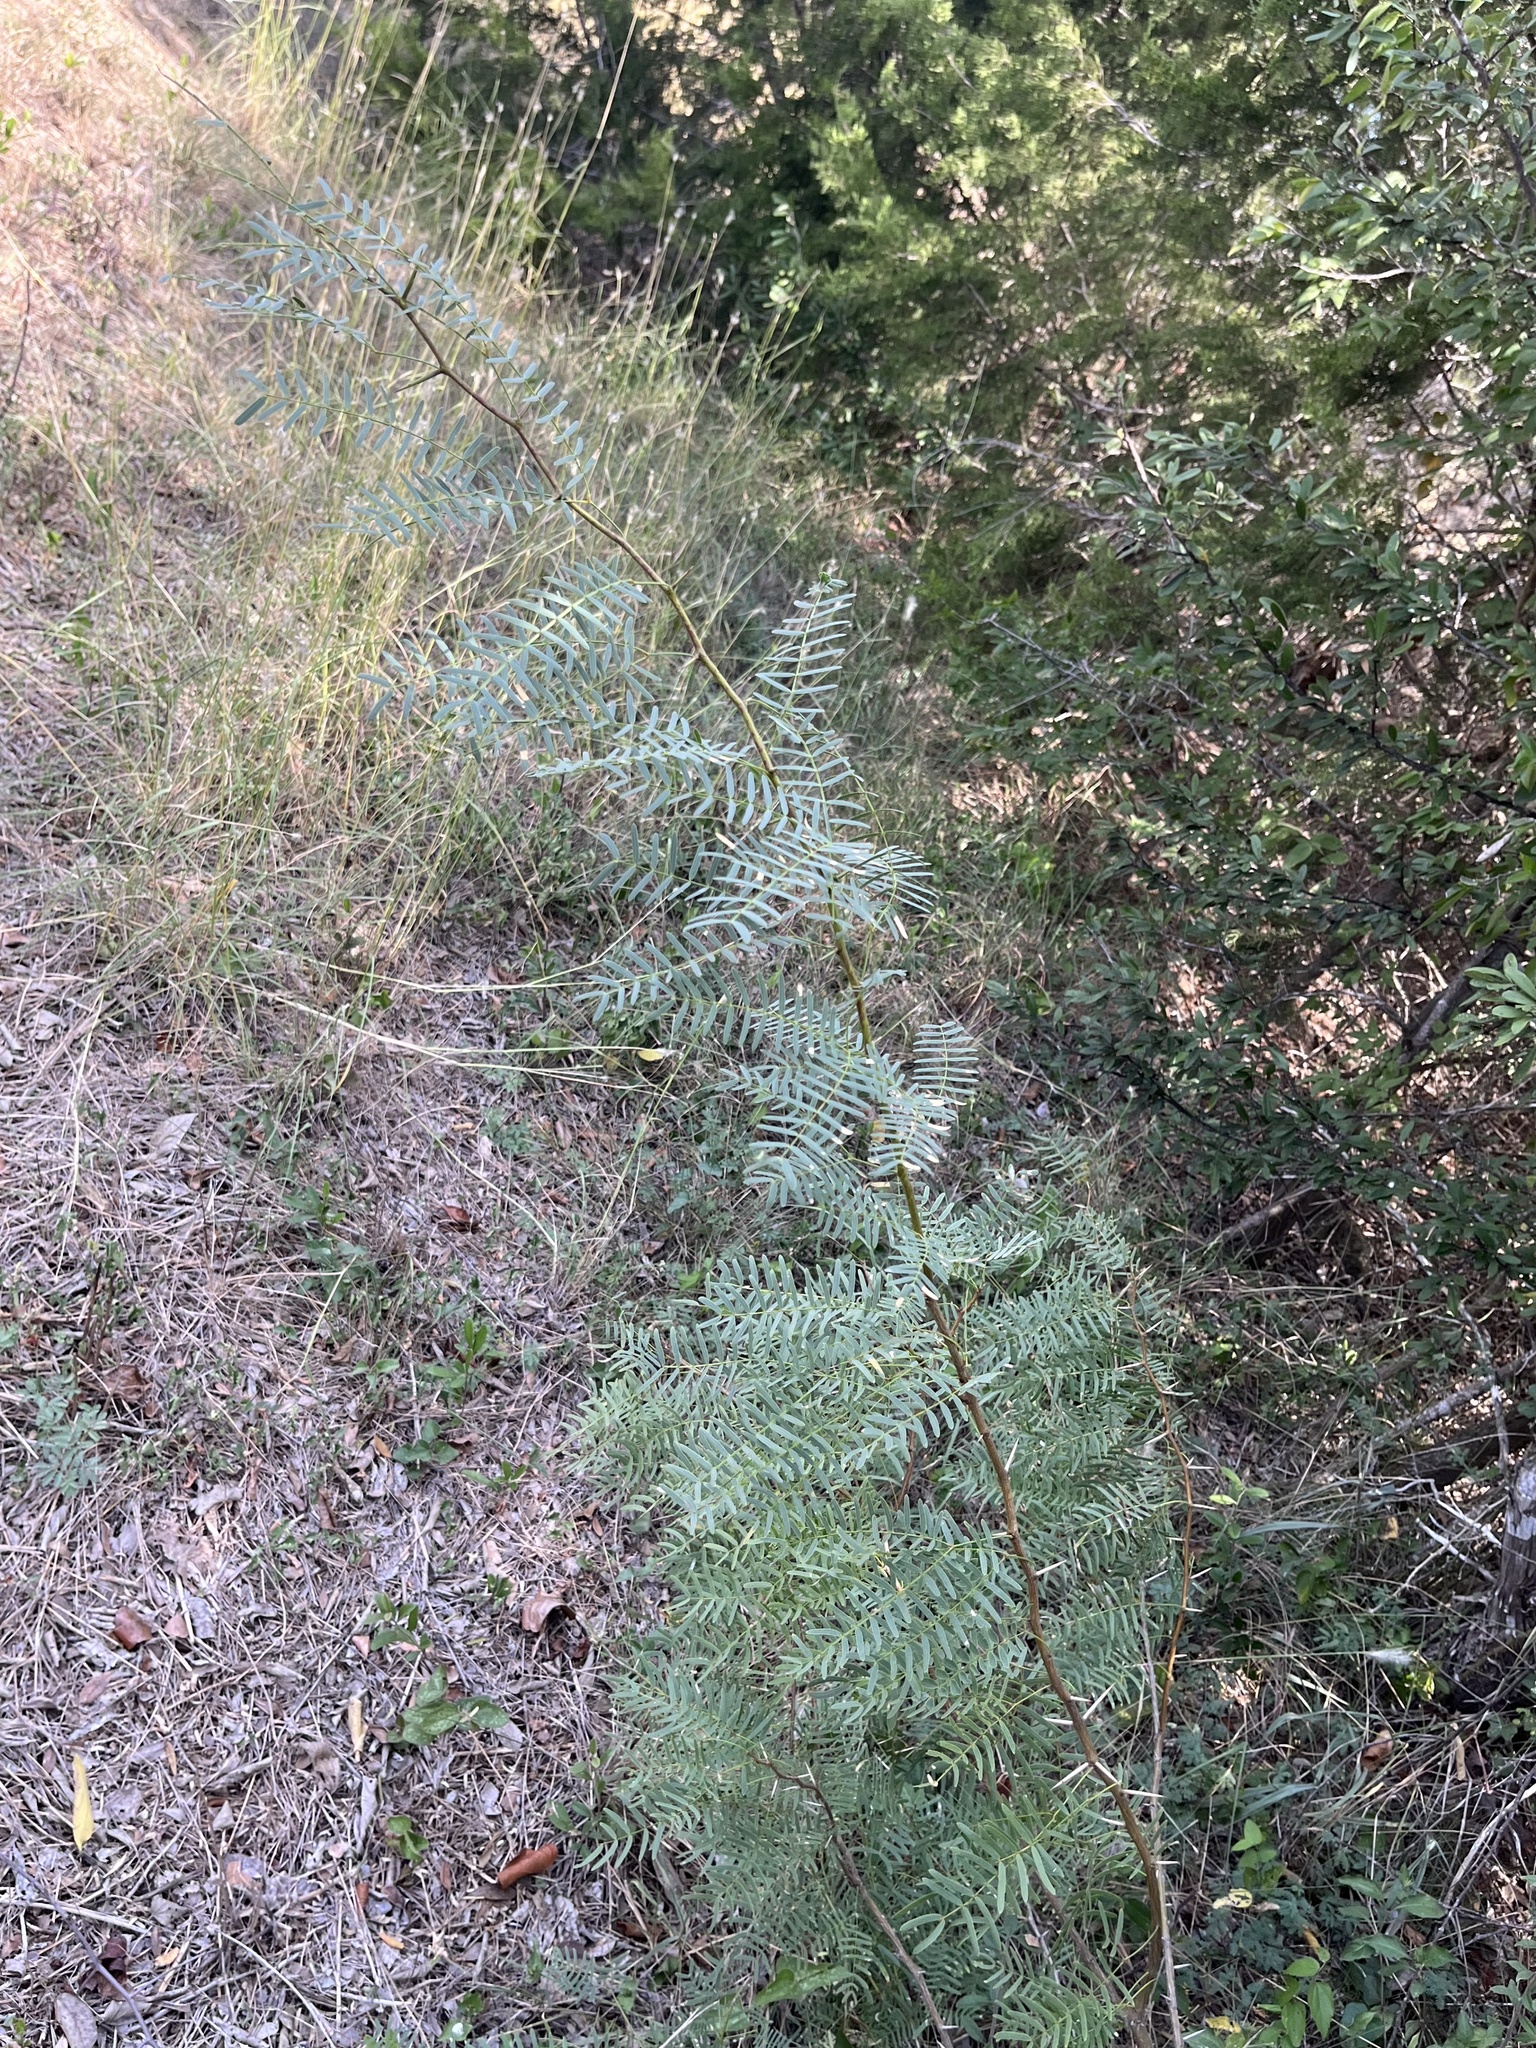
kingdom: Plantae
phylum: Tracheophyta
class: Magnoliopsida
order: Fabales
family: Fabaceae
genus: Prosopis
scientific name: Prosopis glandulosa
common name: Honey mesquite
